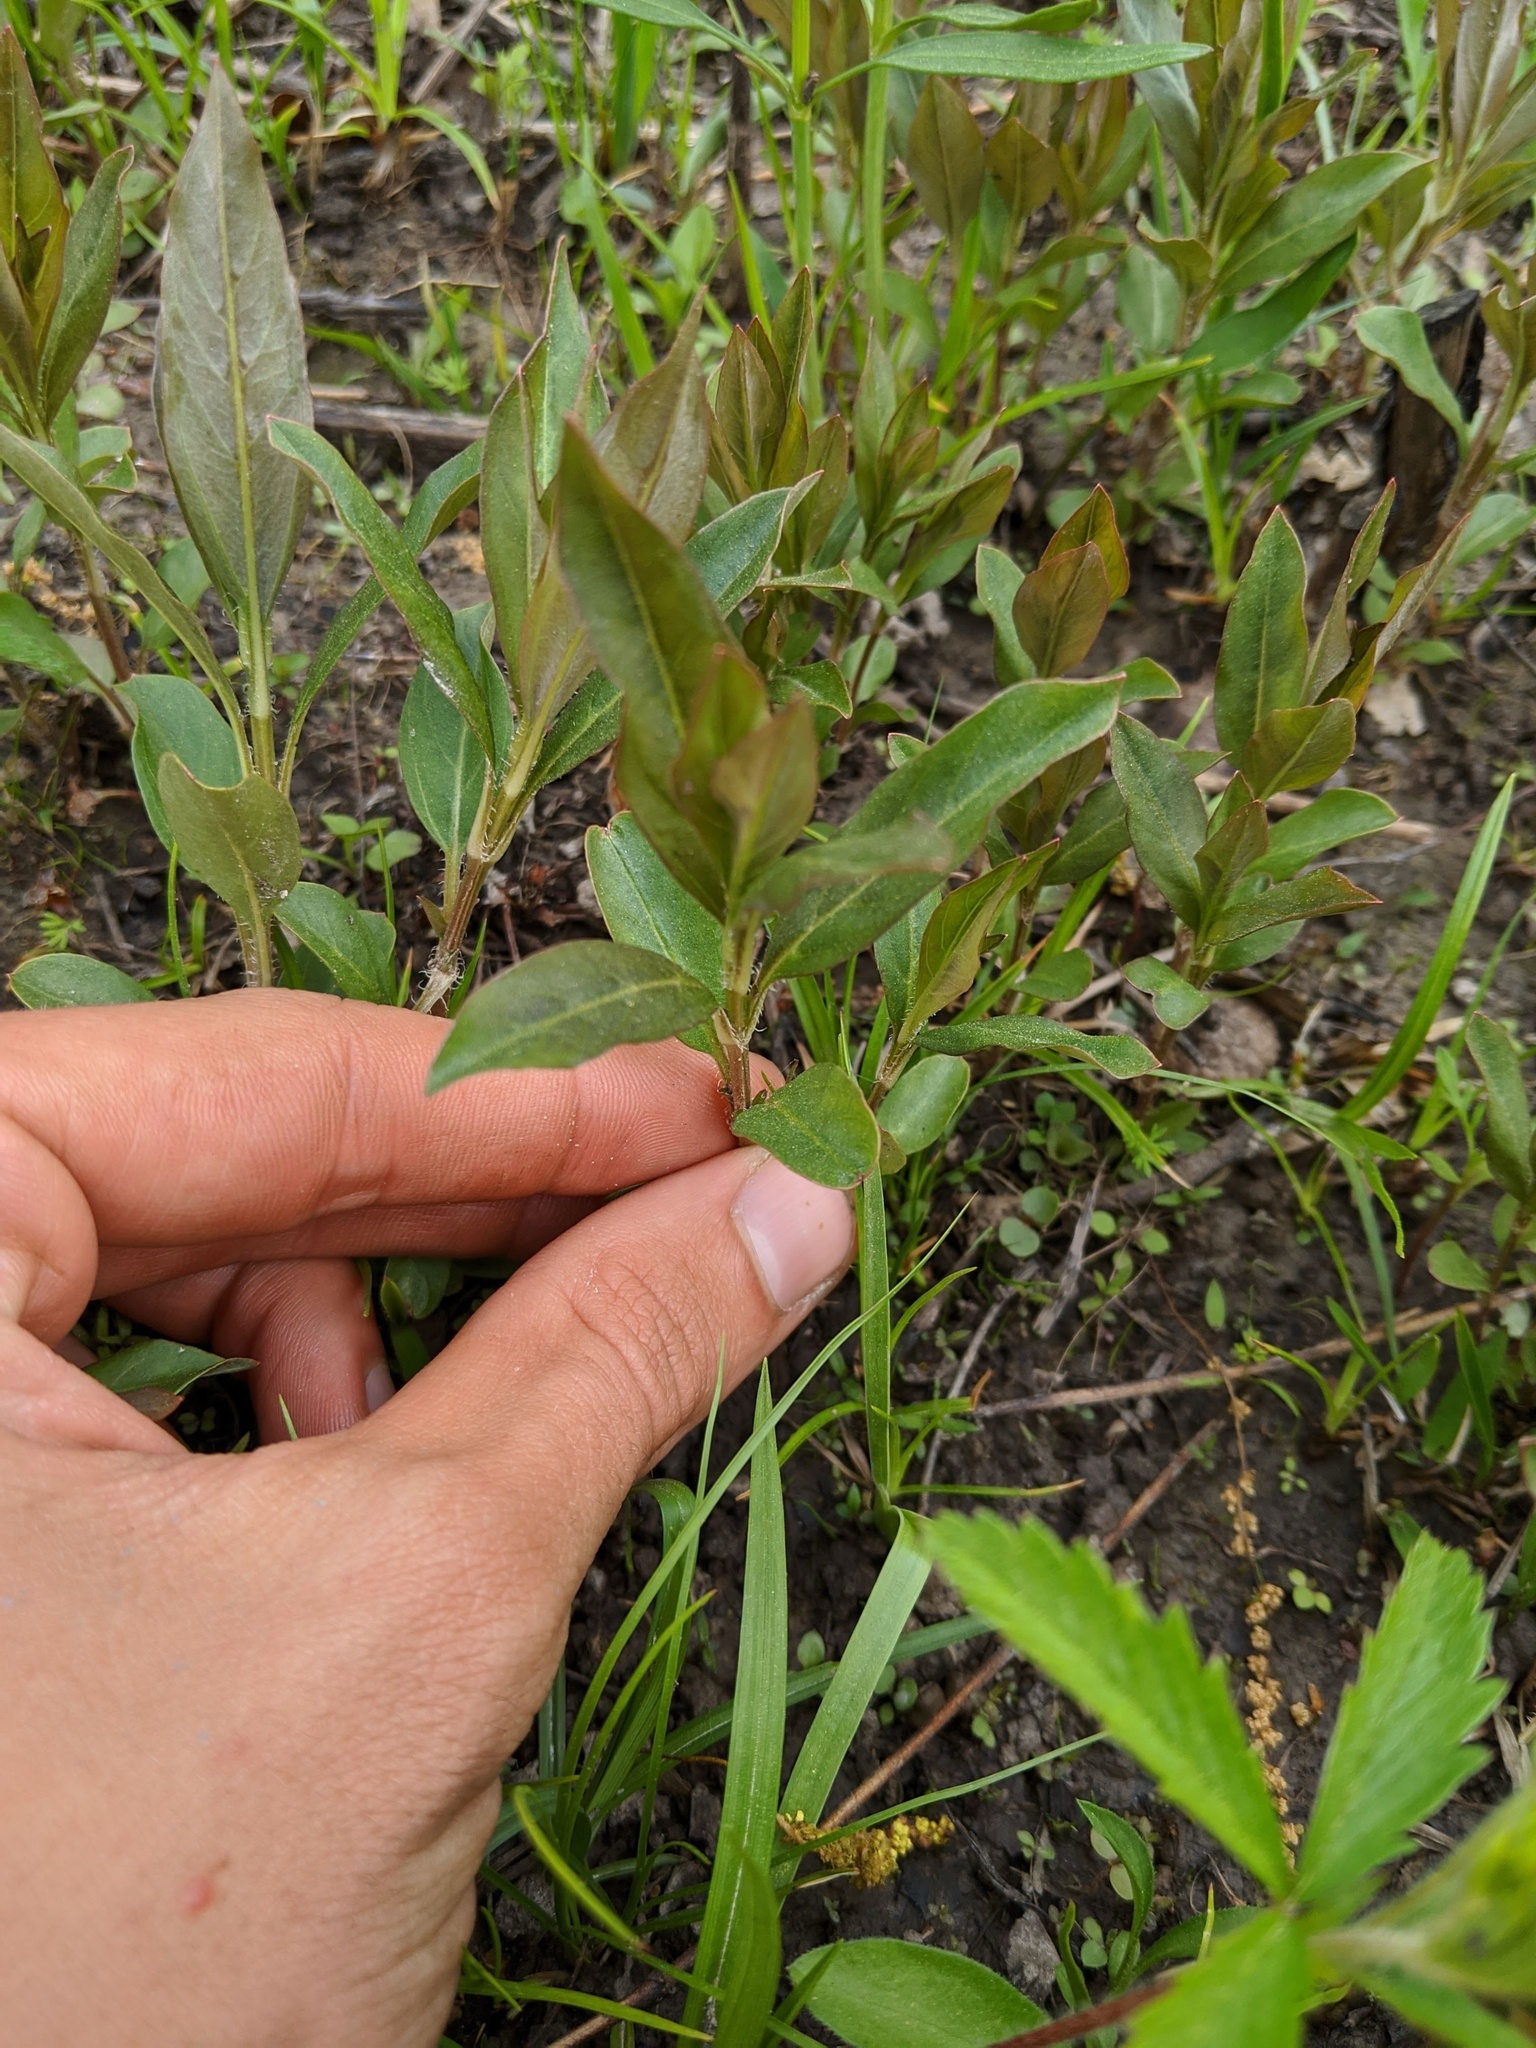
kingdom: Plantae
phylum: Tracheophyta
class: Magnoliopsida
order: Ericales
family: Primulaceae
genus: Lysimachia
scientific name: Lysimachia lanceolata
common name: Lance-leaved loosestrife
